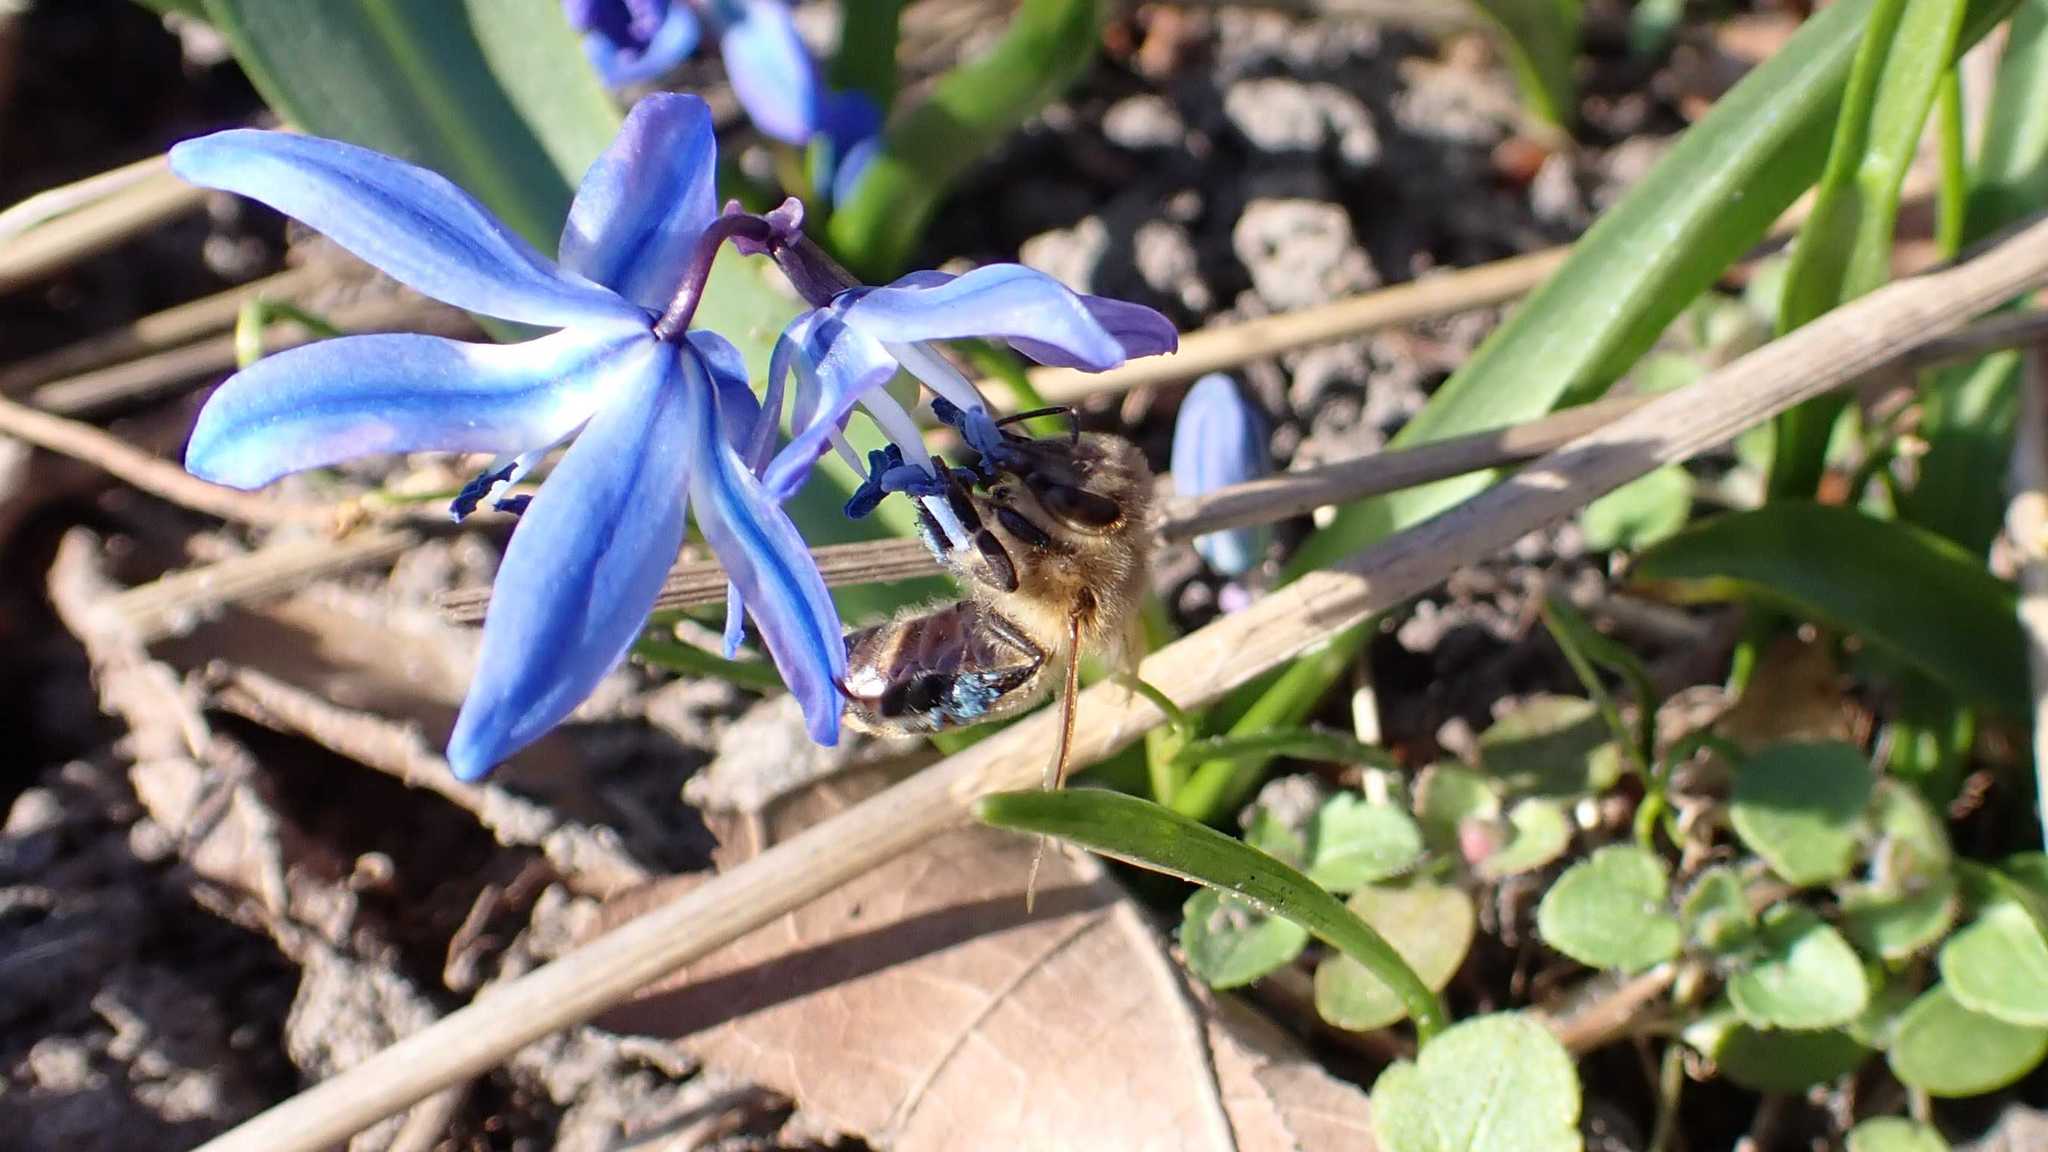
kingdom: Animalia
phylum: Arthropoda
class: Insecta
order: Hymenoptera
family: Apidae
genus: Apis
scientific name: Apis mellifera
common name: Honey bee
